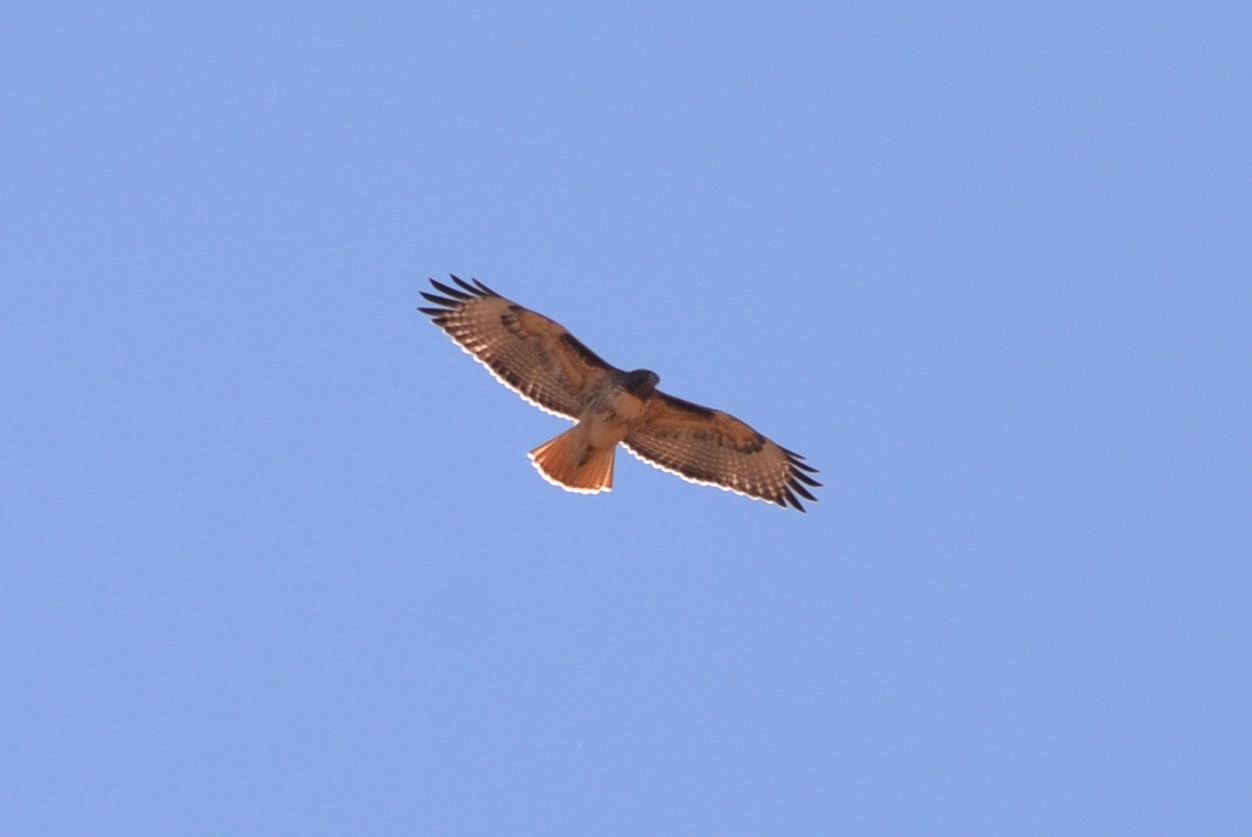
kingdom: Animalia
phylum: Chordata
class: Aves
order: Accipitriformes
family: Accipitridae
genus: Buteo
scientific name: Buteo jamaicensis
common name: Red-tailed hawk
